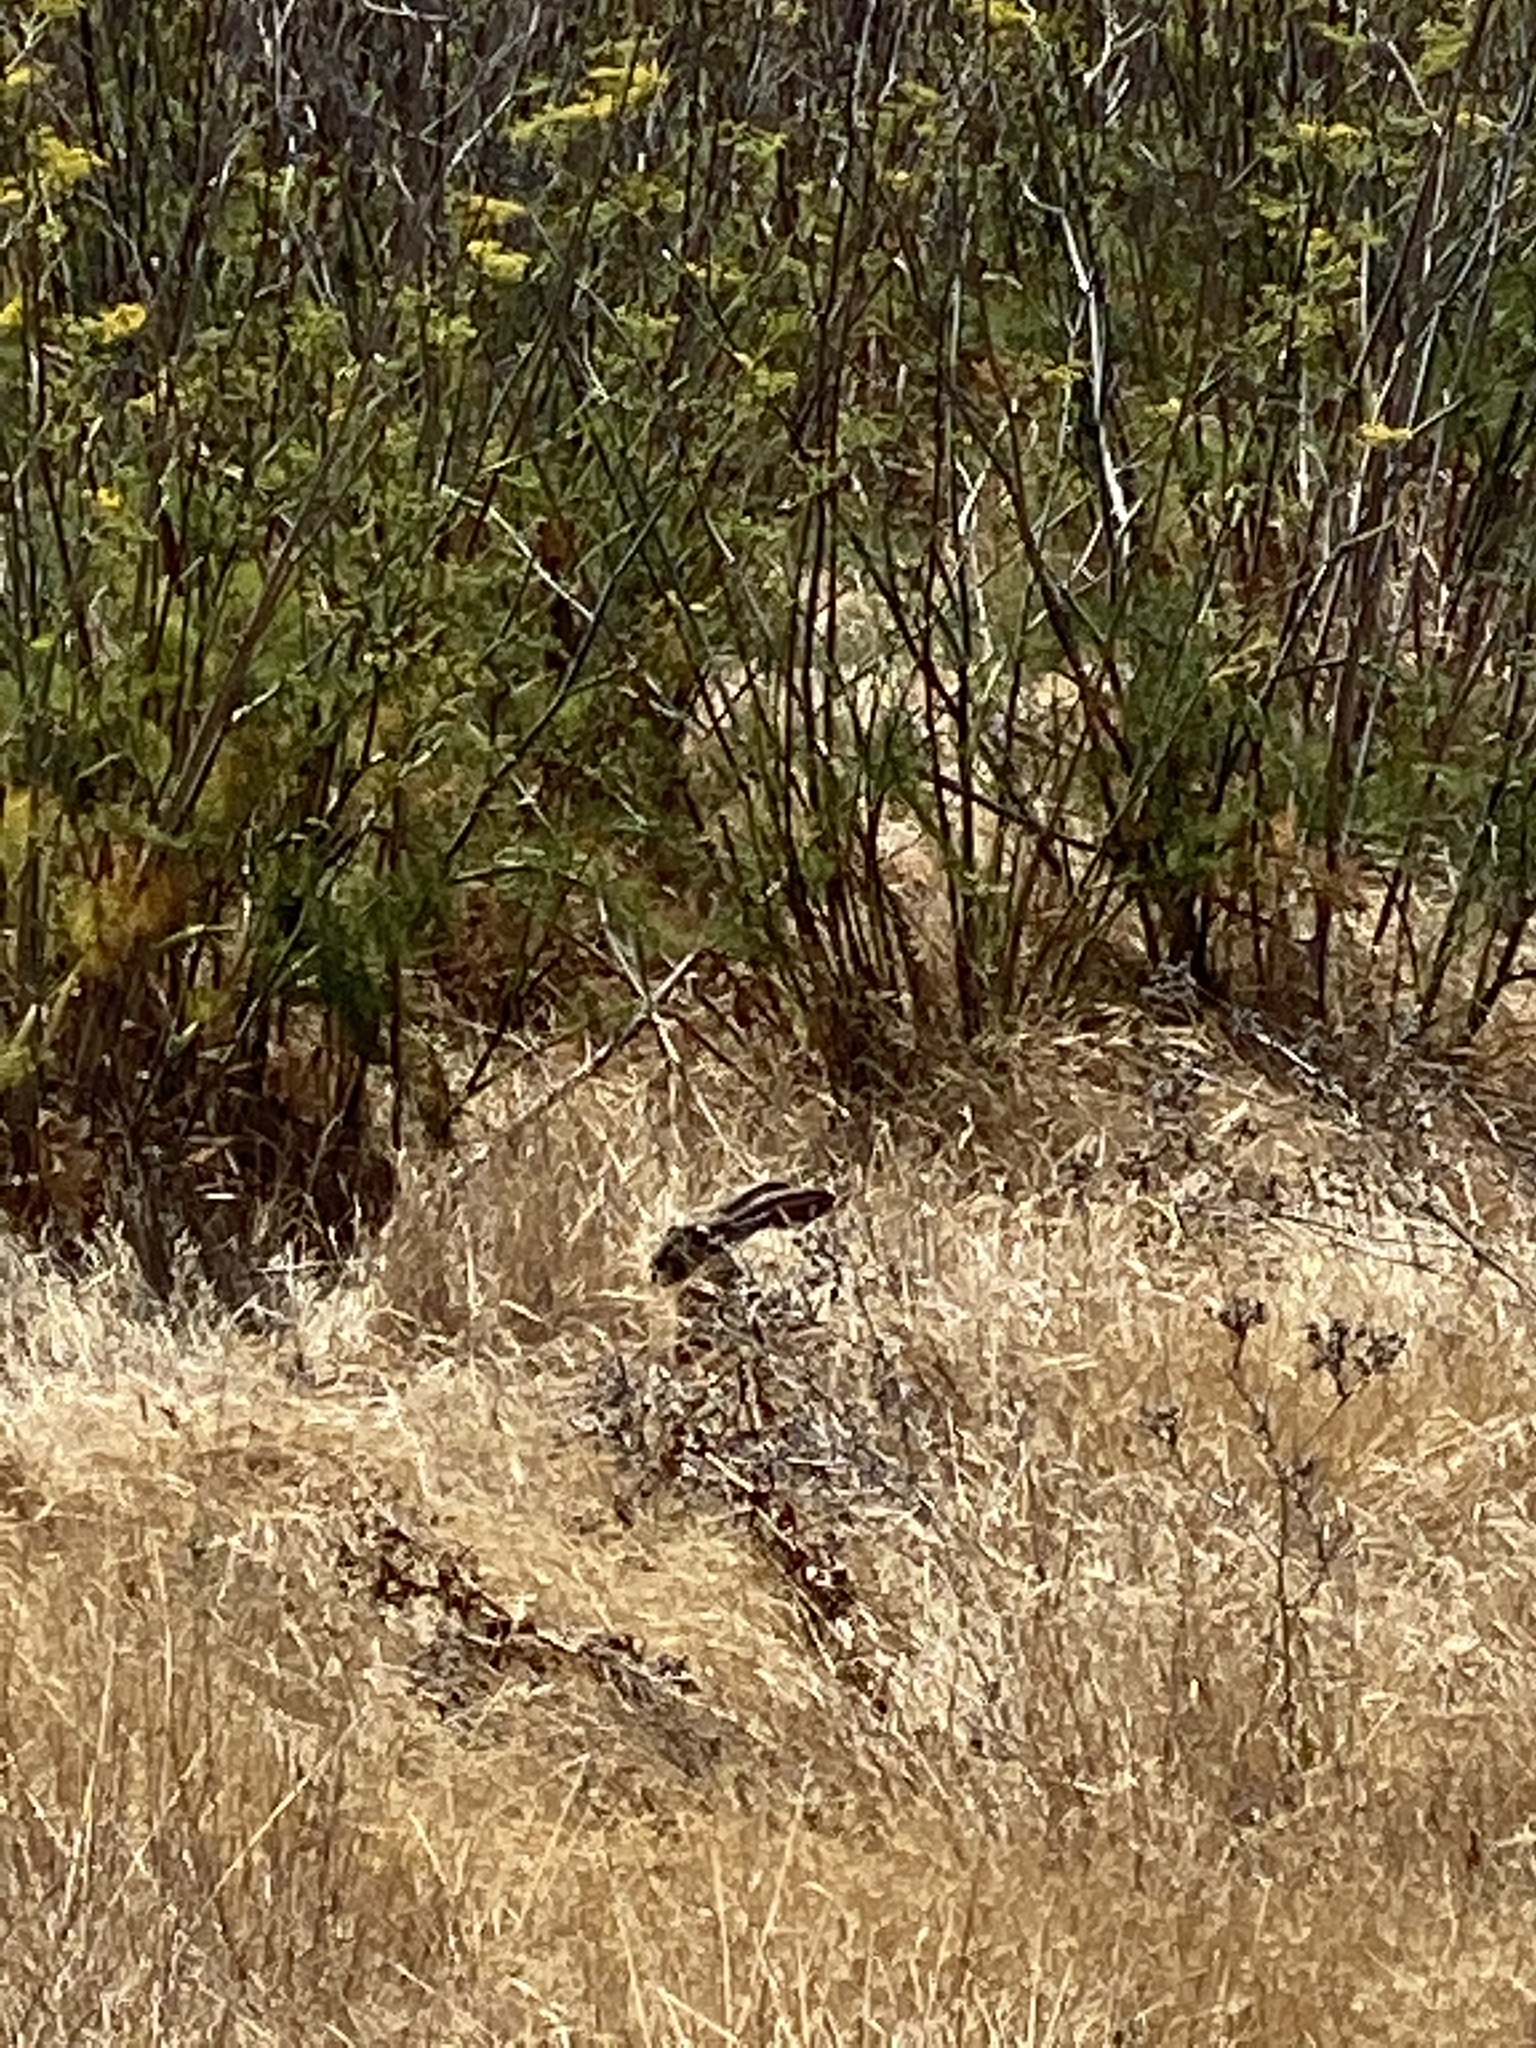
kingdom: Animalia
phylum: Chordata
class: Mammalia
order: Lagomorpha
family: Leporidae
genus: Lepus
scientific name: Lepus californicus
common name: Black-tailed jackrabbit
